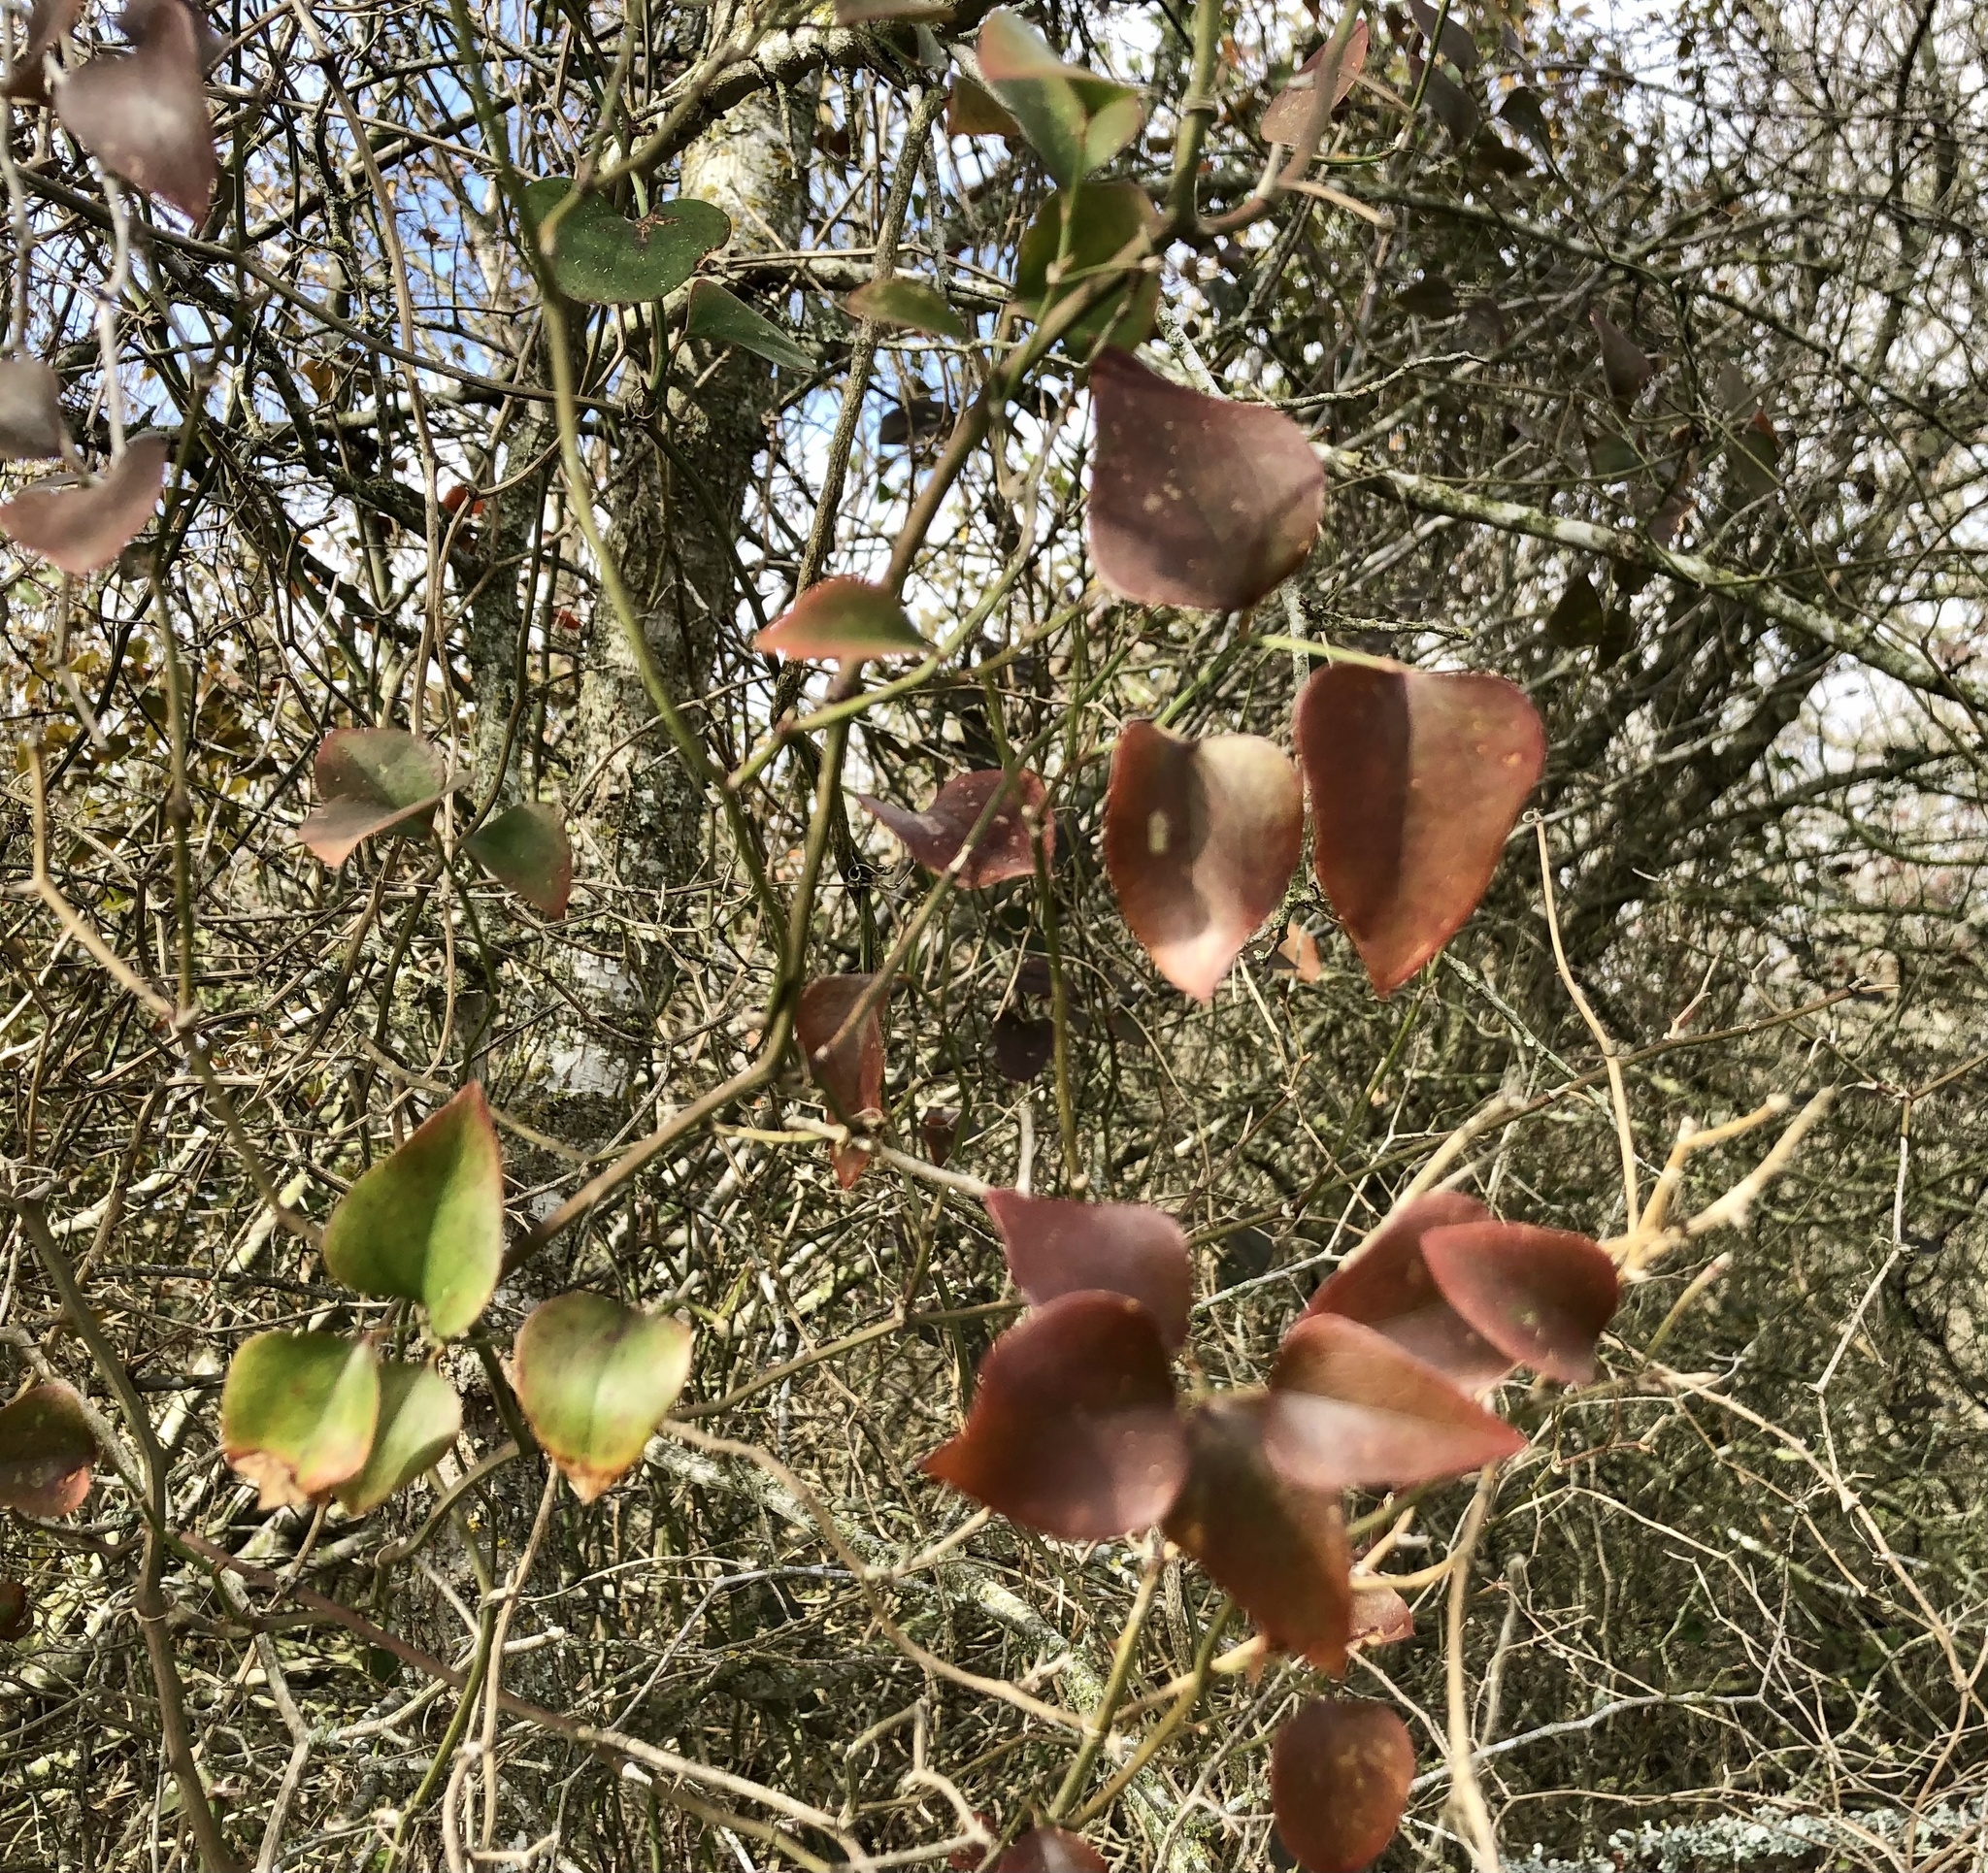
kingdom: Plantae
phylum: Tracheophyta
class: Liliopsida
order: Liliales
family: Smilacaceae
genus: Smilax
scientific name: Smilax bona-nox
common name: Catbrier
